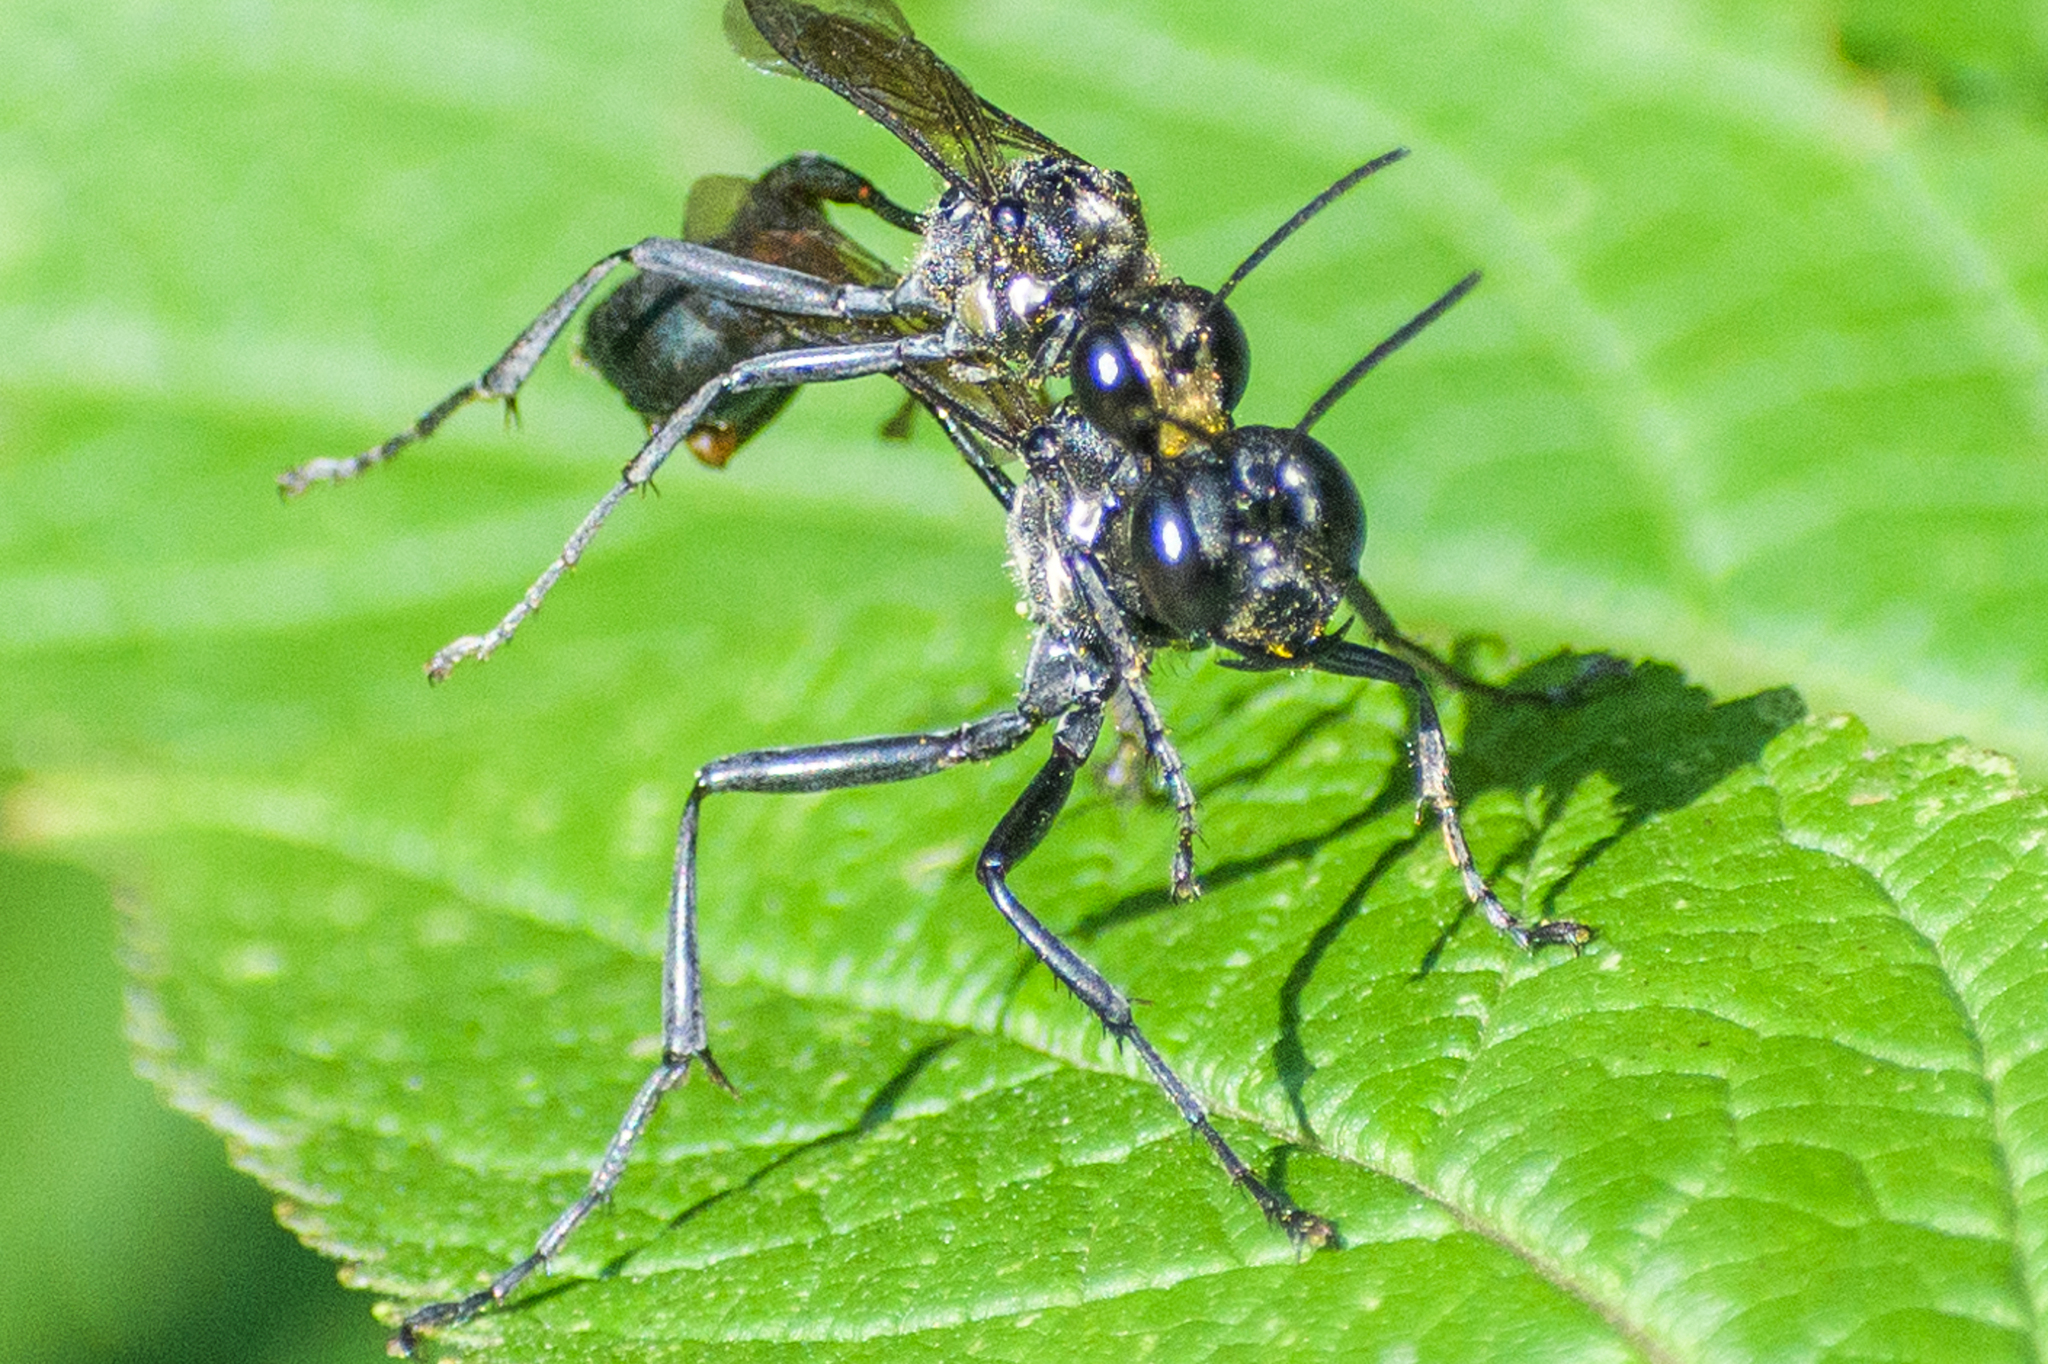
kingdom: Animalia
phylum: Arthropoda
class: Insecta
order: Hymenoptera
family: Sphecidae
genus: Eremnophila
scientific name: Eremnophila aureonotata
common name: Gold-marked thread-waisted wasp
